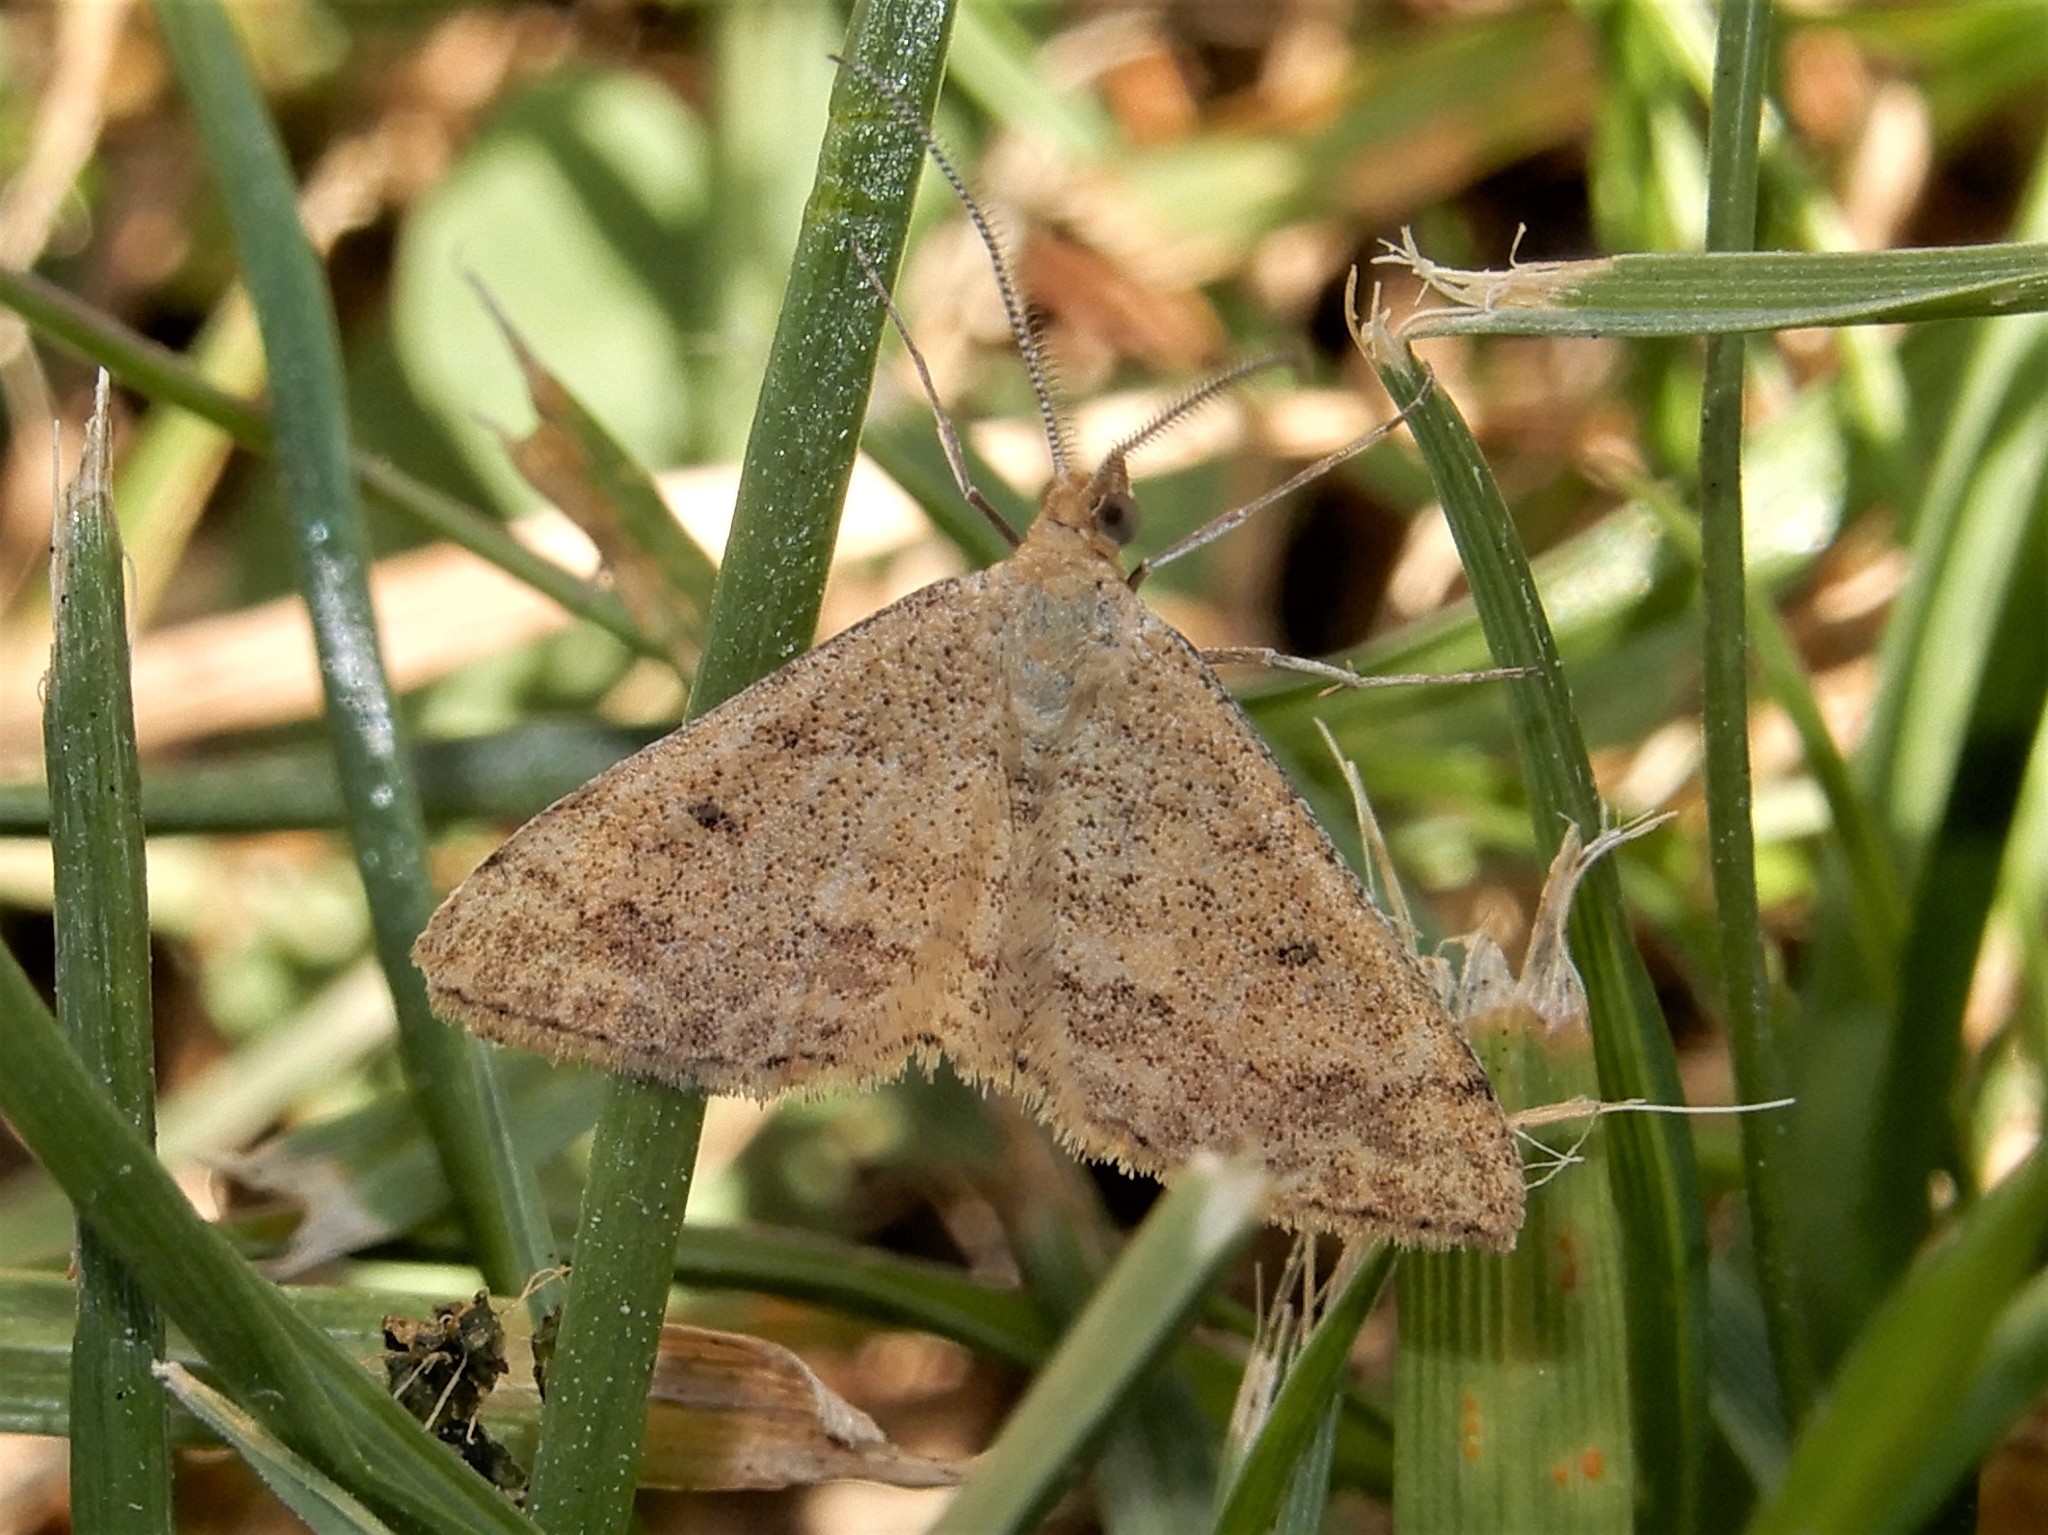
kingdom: Animalia
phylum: Arthropoda
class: Insecta
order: Lepidoptera
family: Geometridae
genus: Scopula
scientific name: Scopula rubraria
